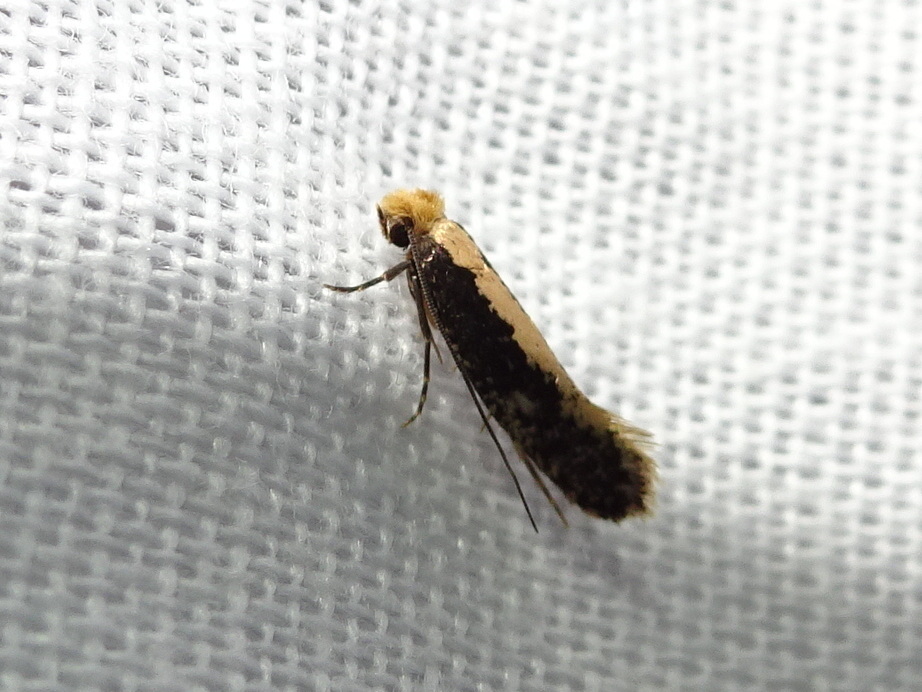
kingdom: Animalia
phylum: Arthropoda
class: Insecta
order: Lepidoptera
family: Tineidae
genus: Monopis
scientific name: Monopis obviella
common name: Tineid moth
